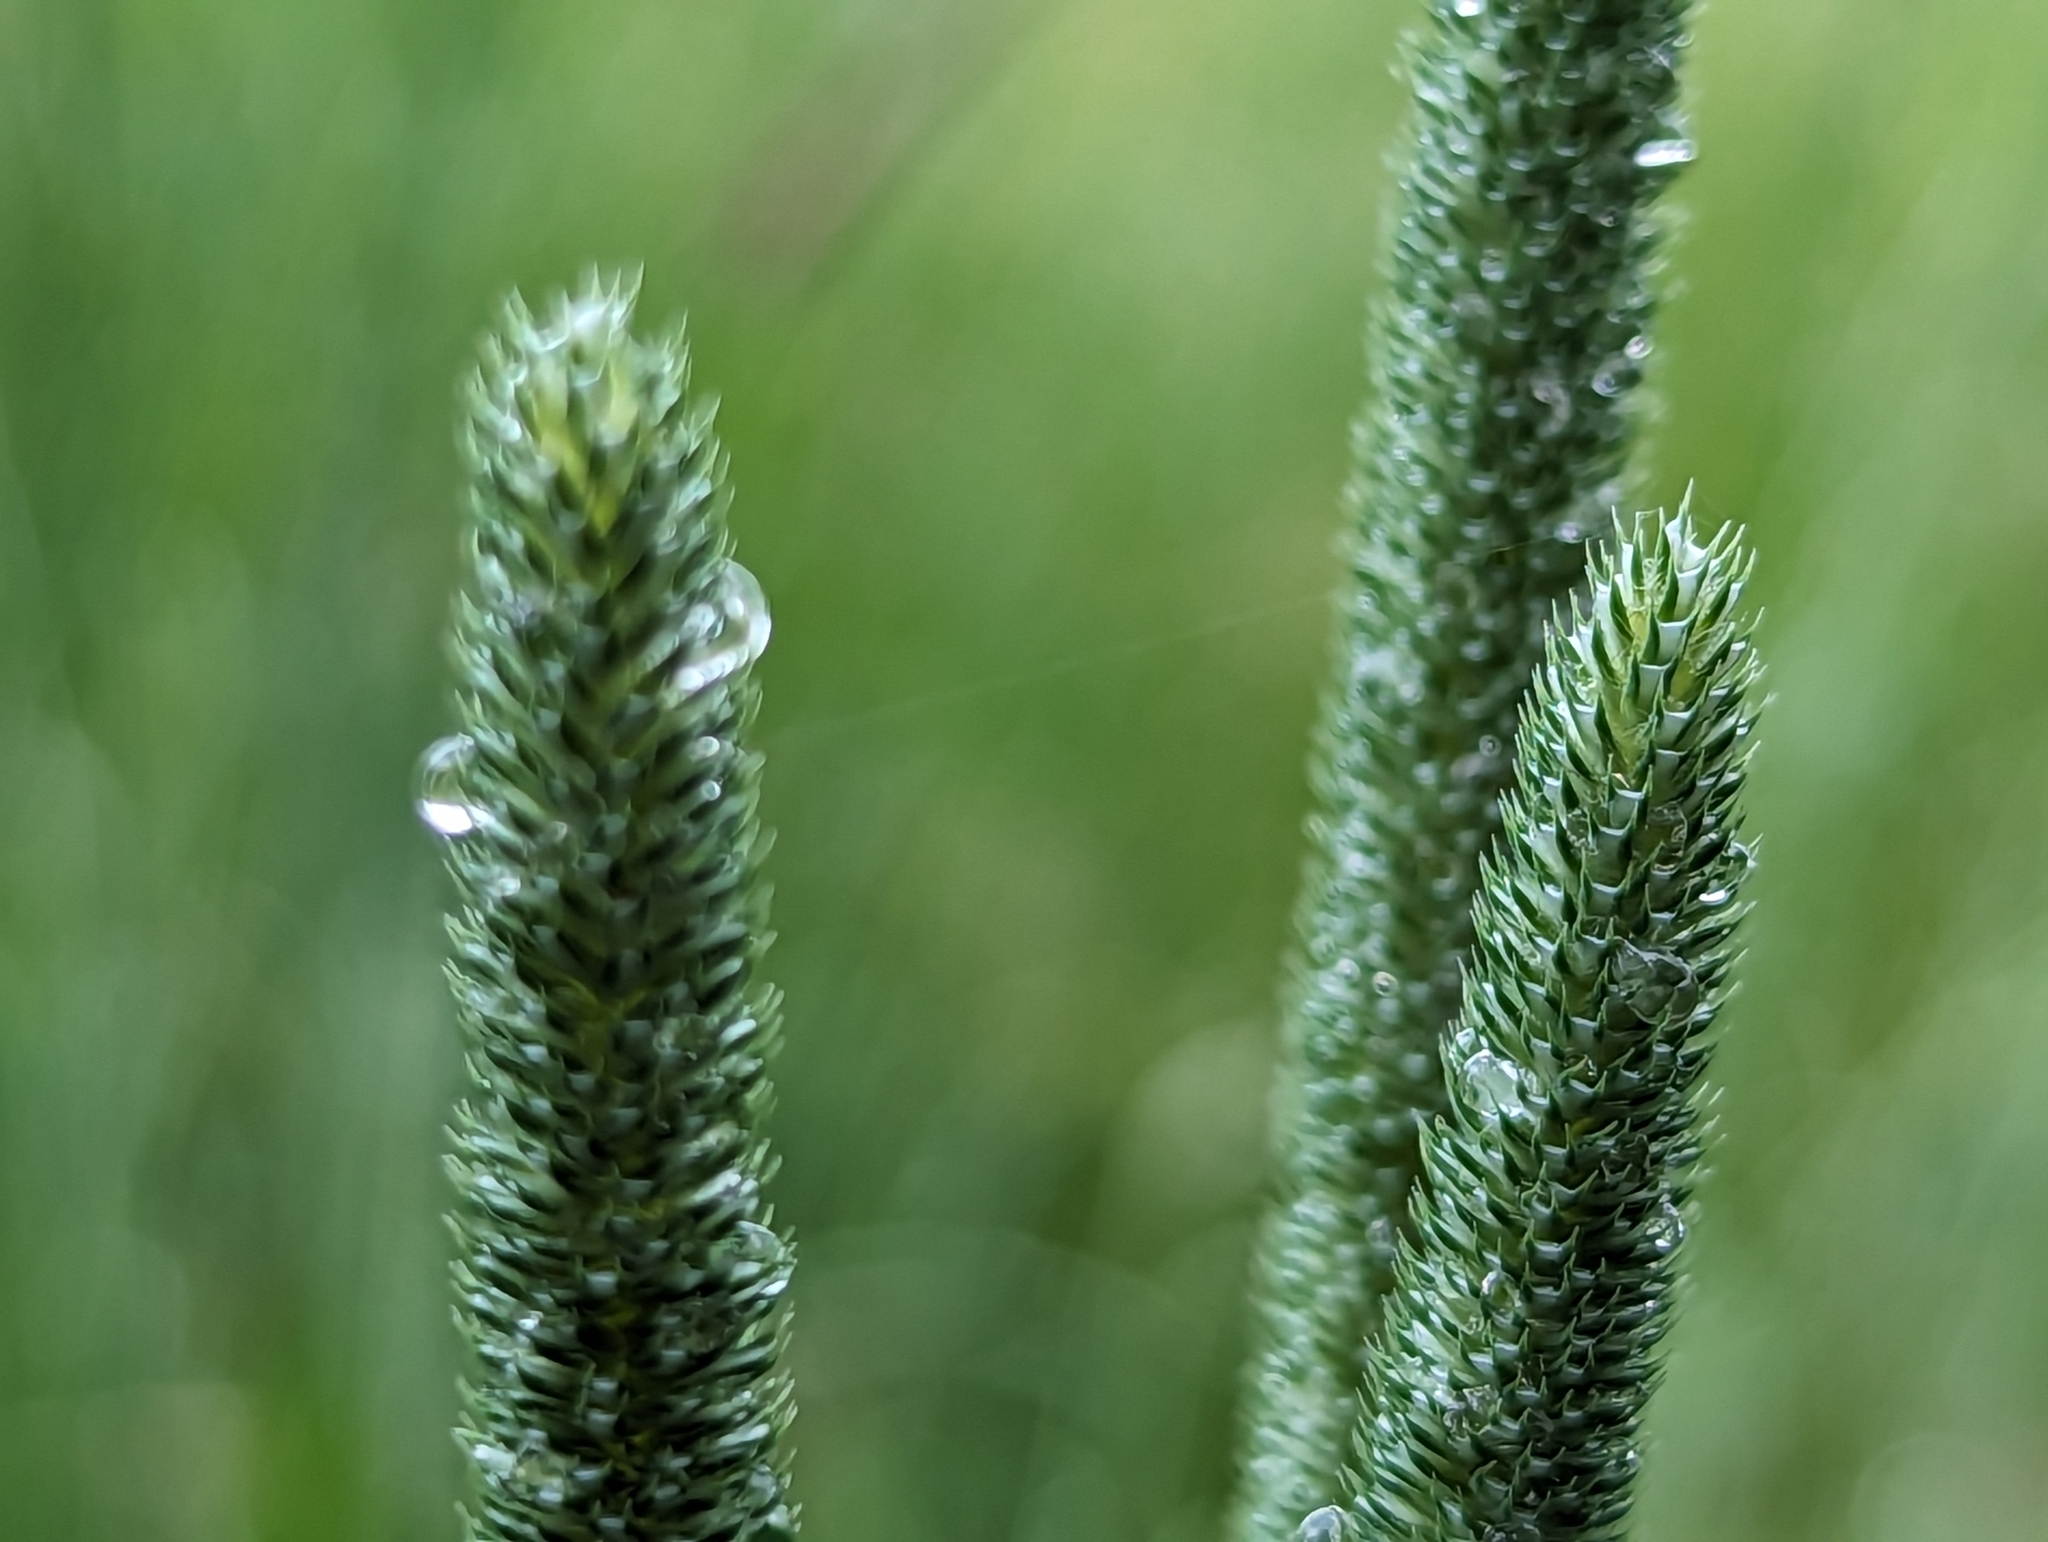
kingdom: Plantae
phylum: Tracheophyta
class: Liliopsida
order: Poales
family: Poaceae
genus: Phleum
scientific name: Phleum pratense
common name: Timothy grass
